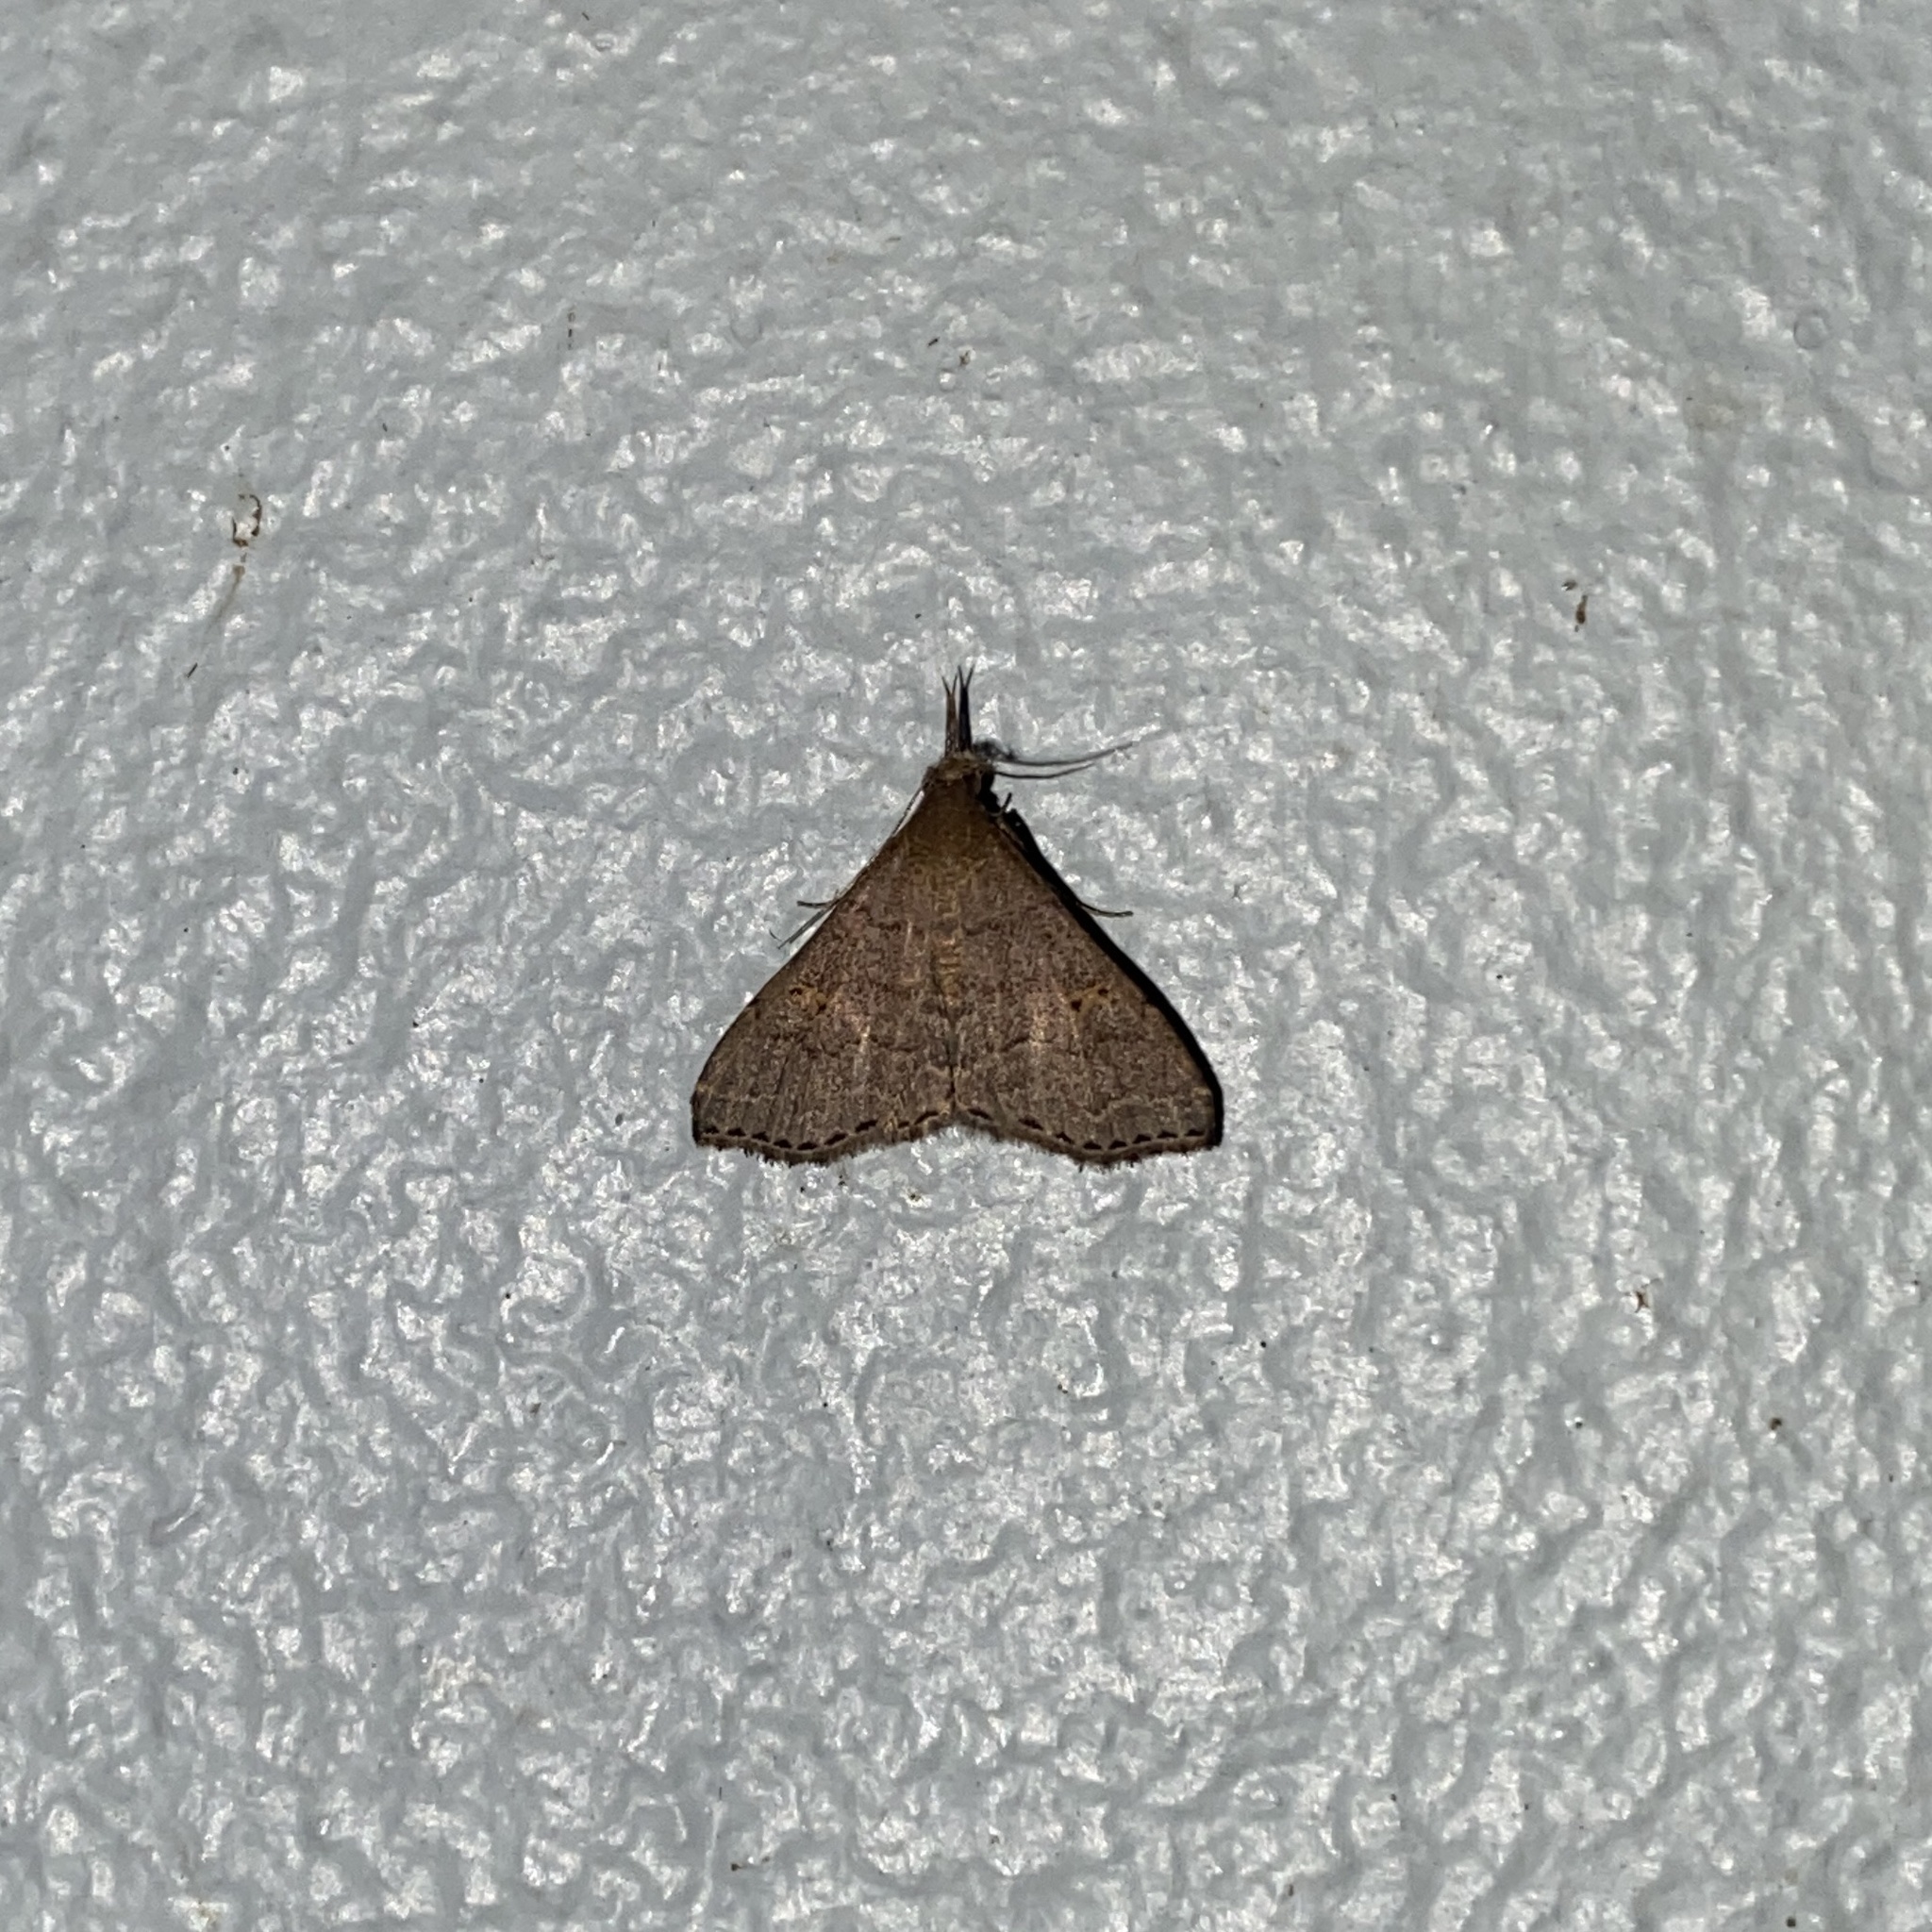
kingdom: Animalia
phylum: Arthropoda
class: Insecta
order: Lepidoptera
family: Erebidae
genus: Physula
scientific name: Physula migralis
